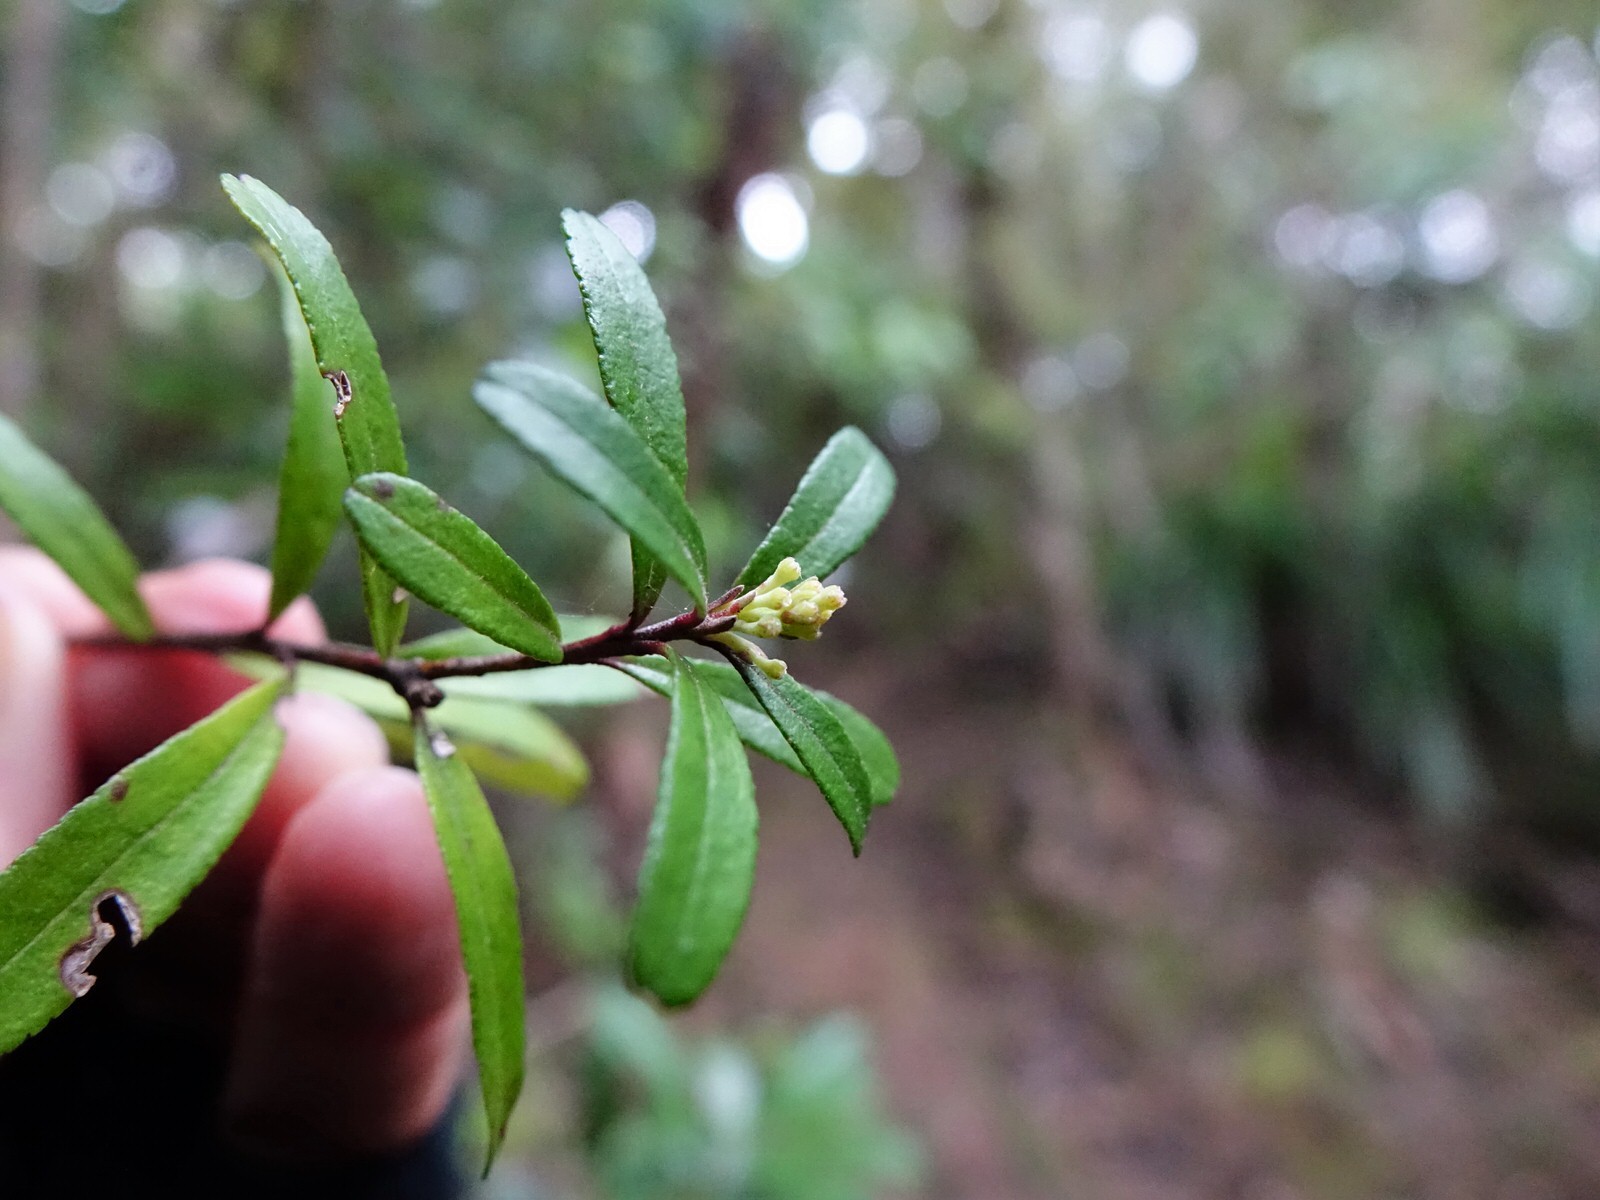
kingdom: Plantae
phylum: Tracheophyta
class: Magnoliopsida
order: Sapindales
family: Rutaceae
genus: Leionema
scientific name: Leionema nudum
